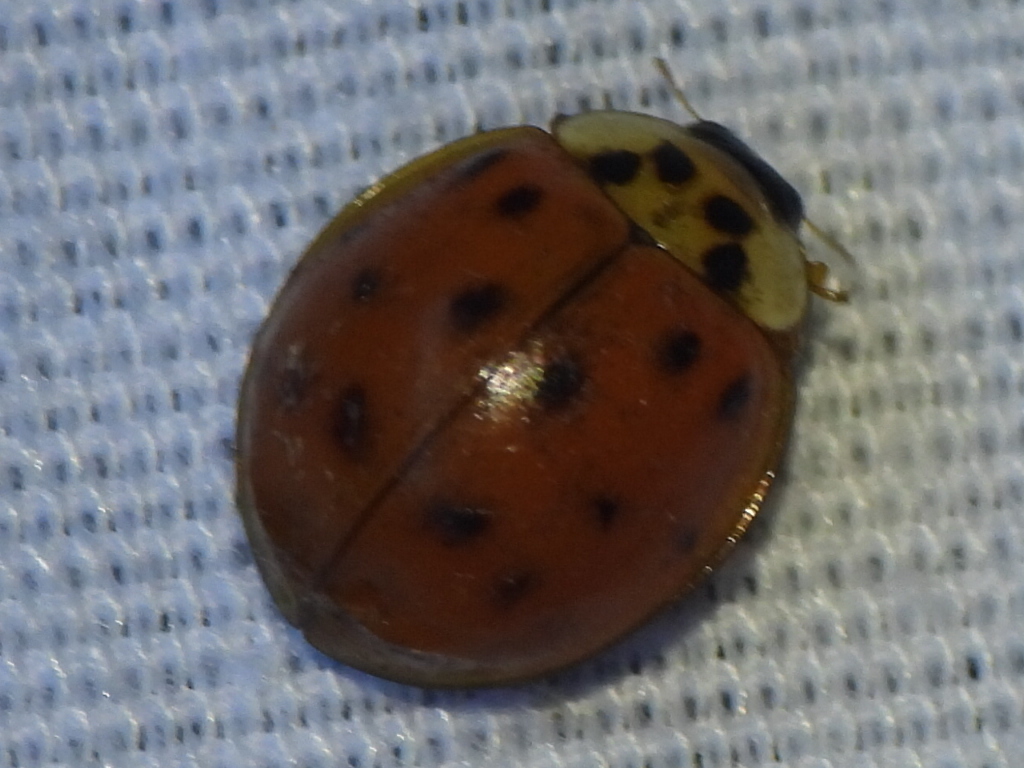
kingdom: Animalia
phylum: Arthropoda
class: Insecta
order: Coleoptera
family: Coccinellidae
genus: Harmonia
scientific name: Harmonia axyridis
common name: Harlequin ladybird
